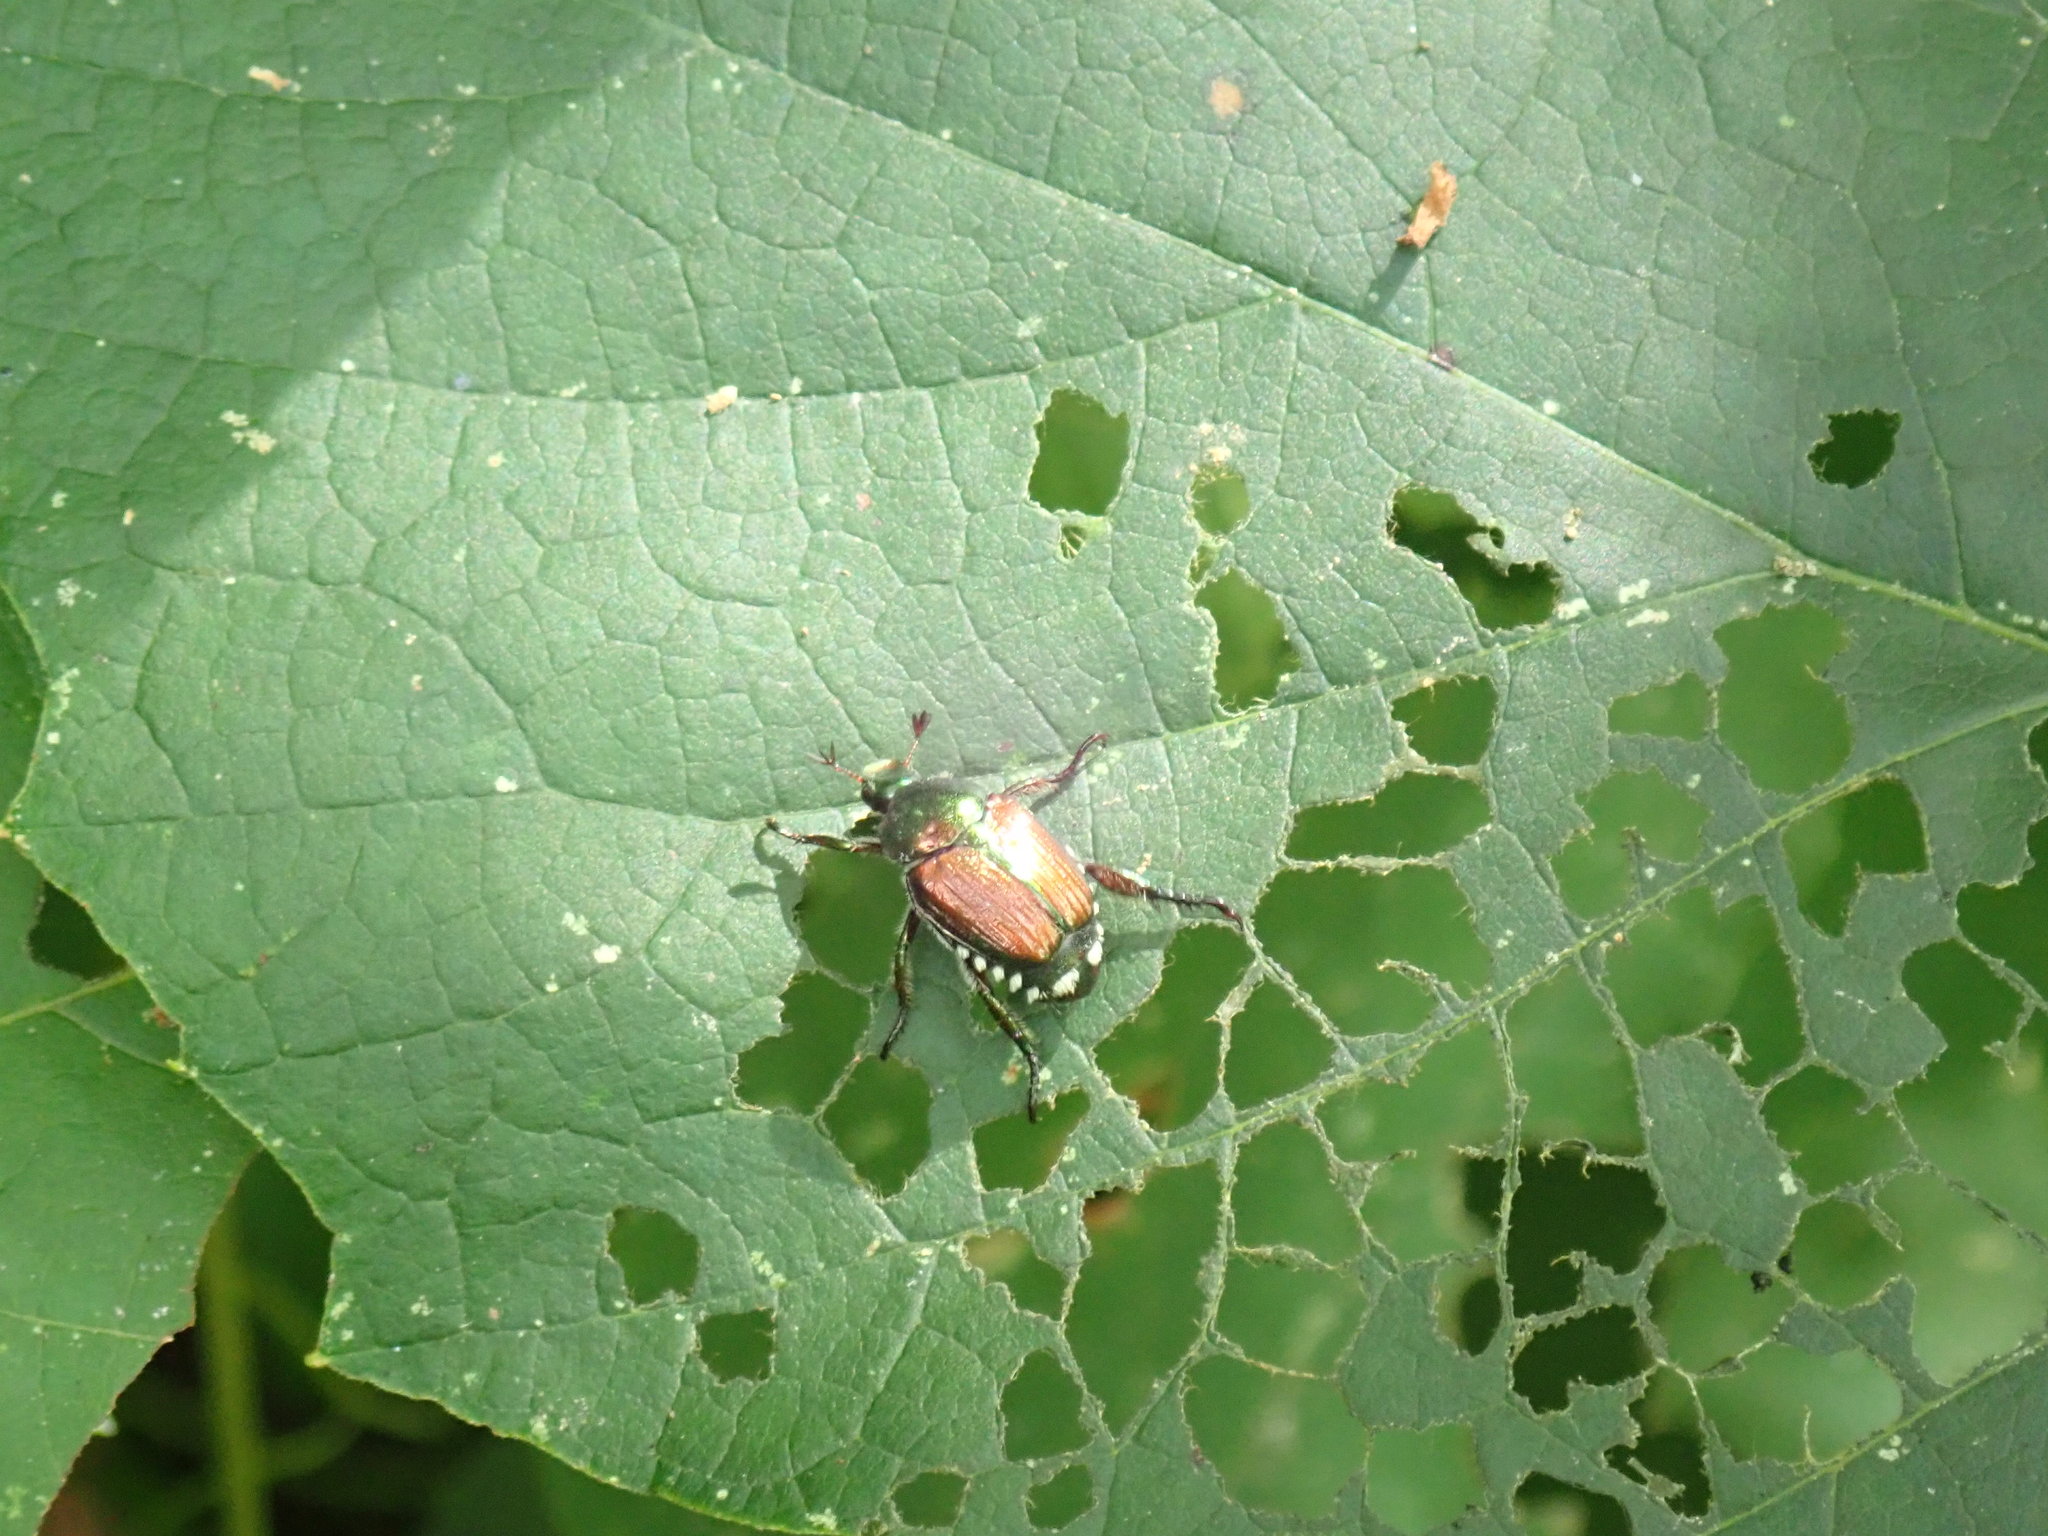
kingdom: Animalia
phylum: Arthropoda
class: Insecta
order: Coleoptera
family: Scarabaeidae
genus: Popillia
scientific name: Popillia japonica
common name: Japanese beetle
